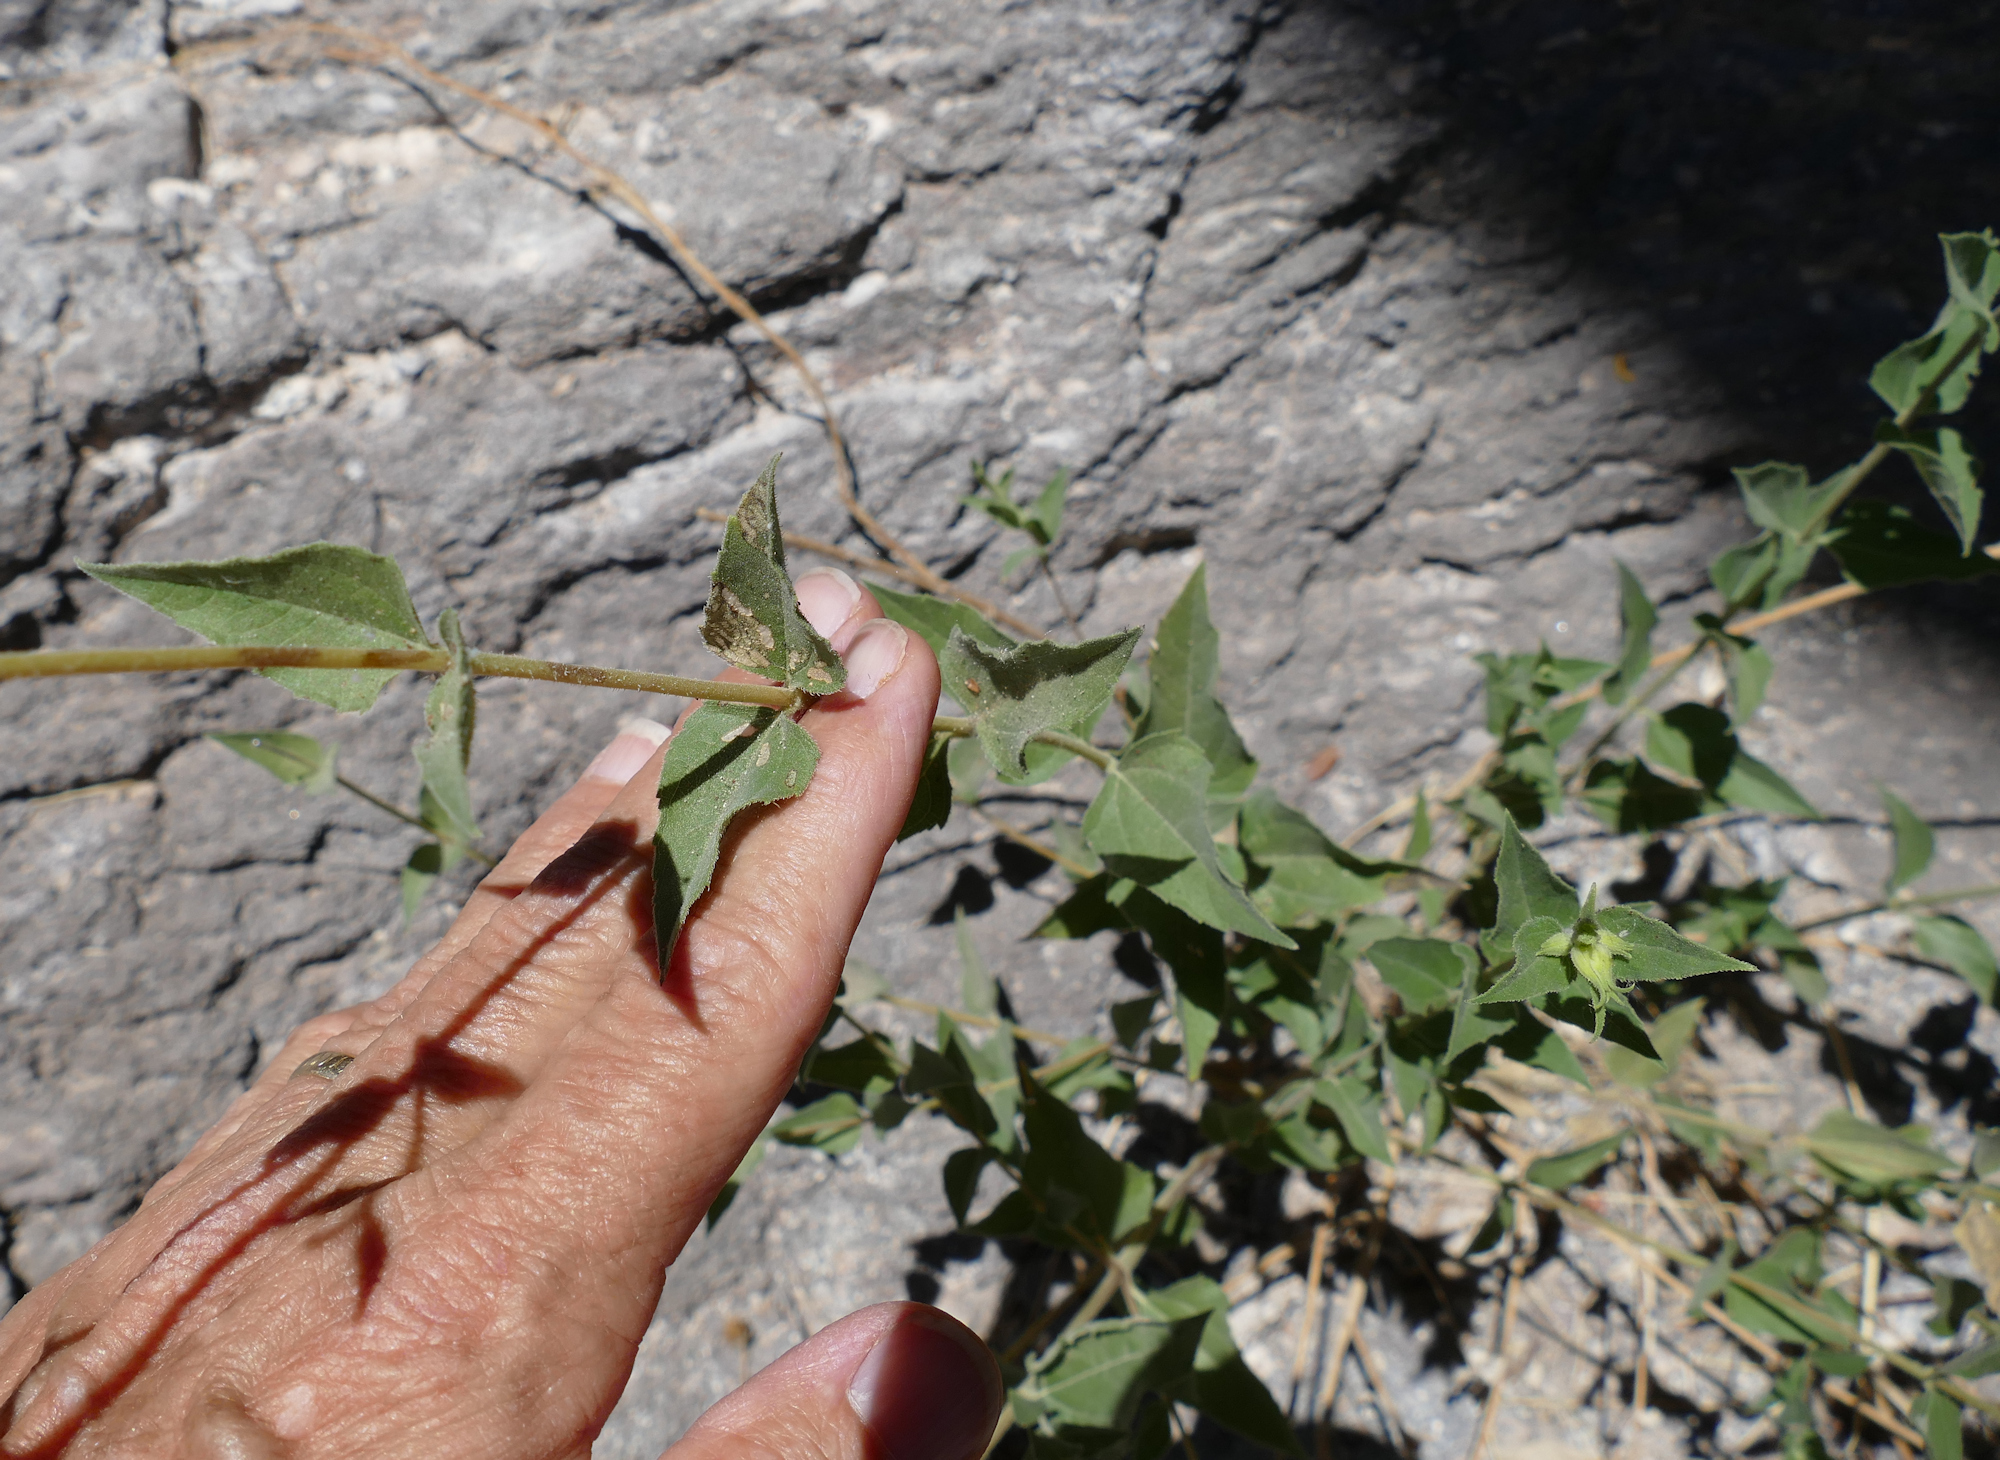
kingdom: Plantae
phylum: Tracheophyta
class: Magnoliopsida
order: Asterales
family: Asteraceae
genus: Aldama
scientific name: Aldama cordifolia
